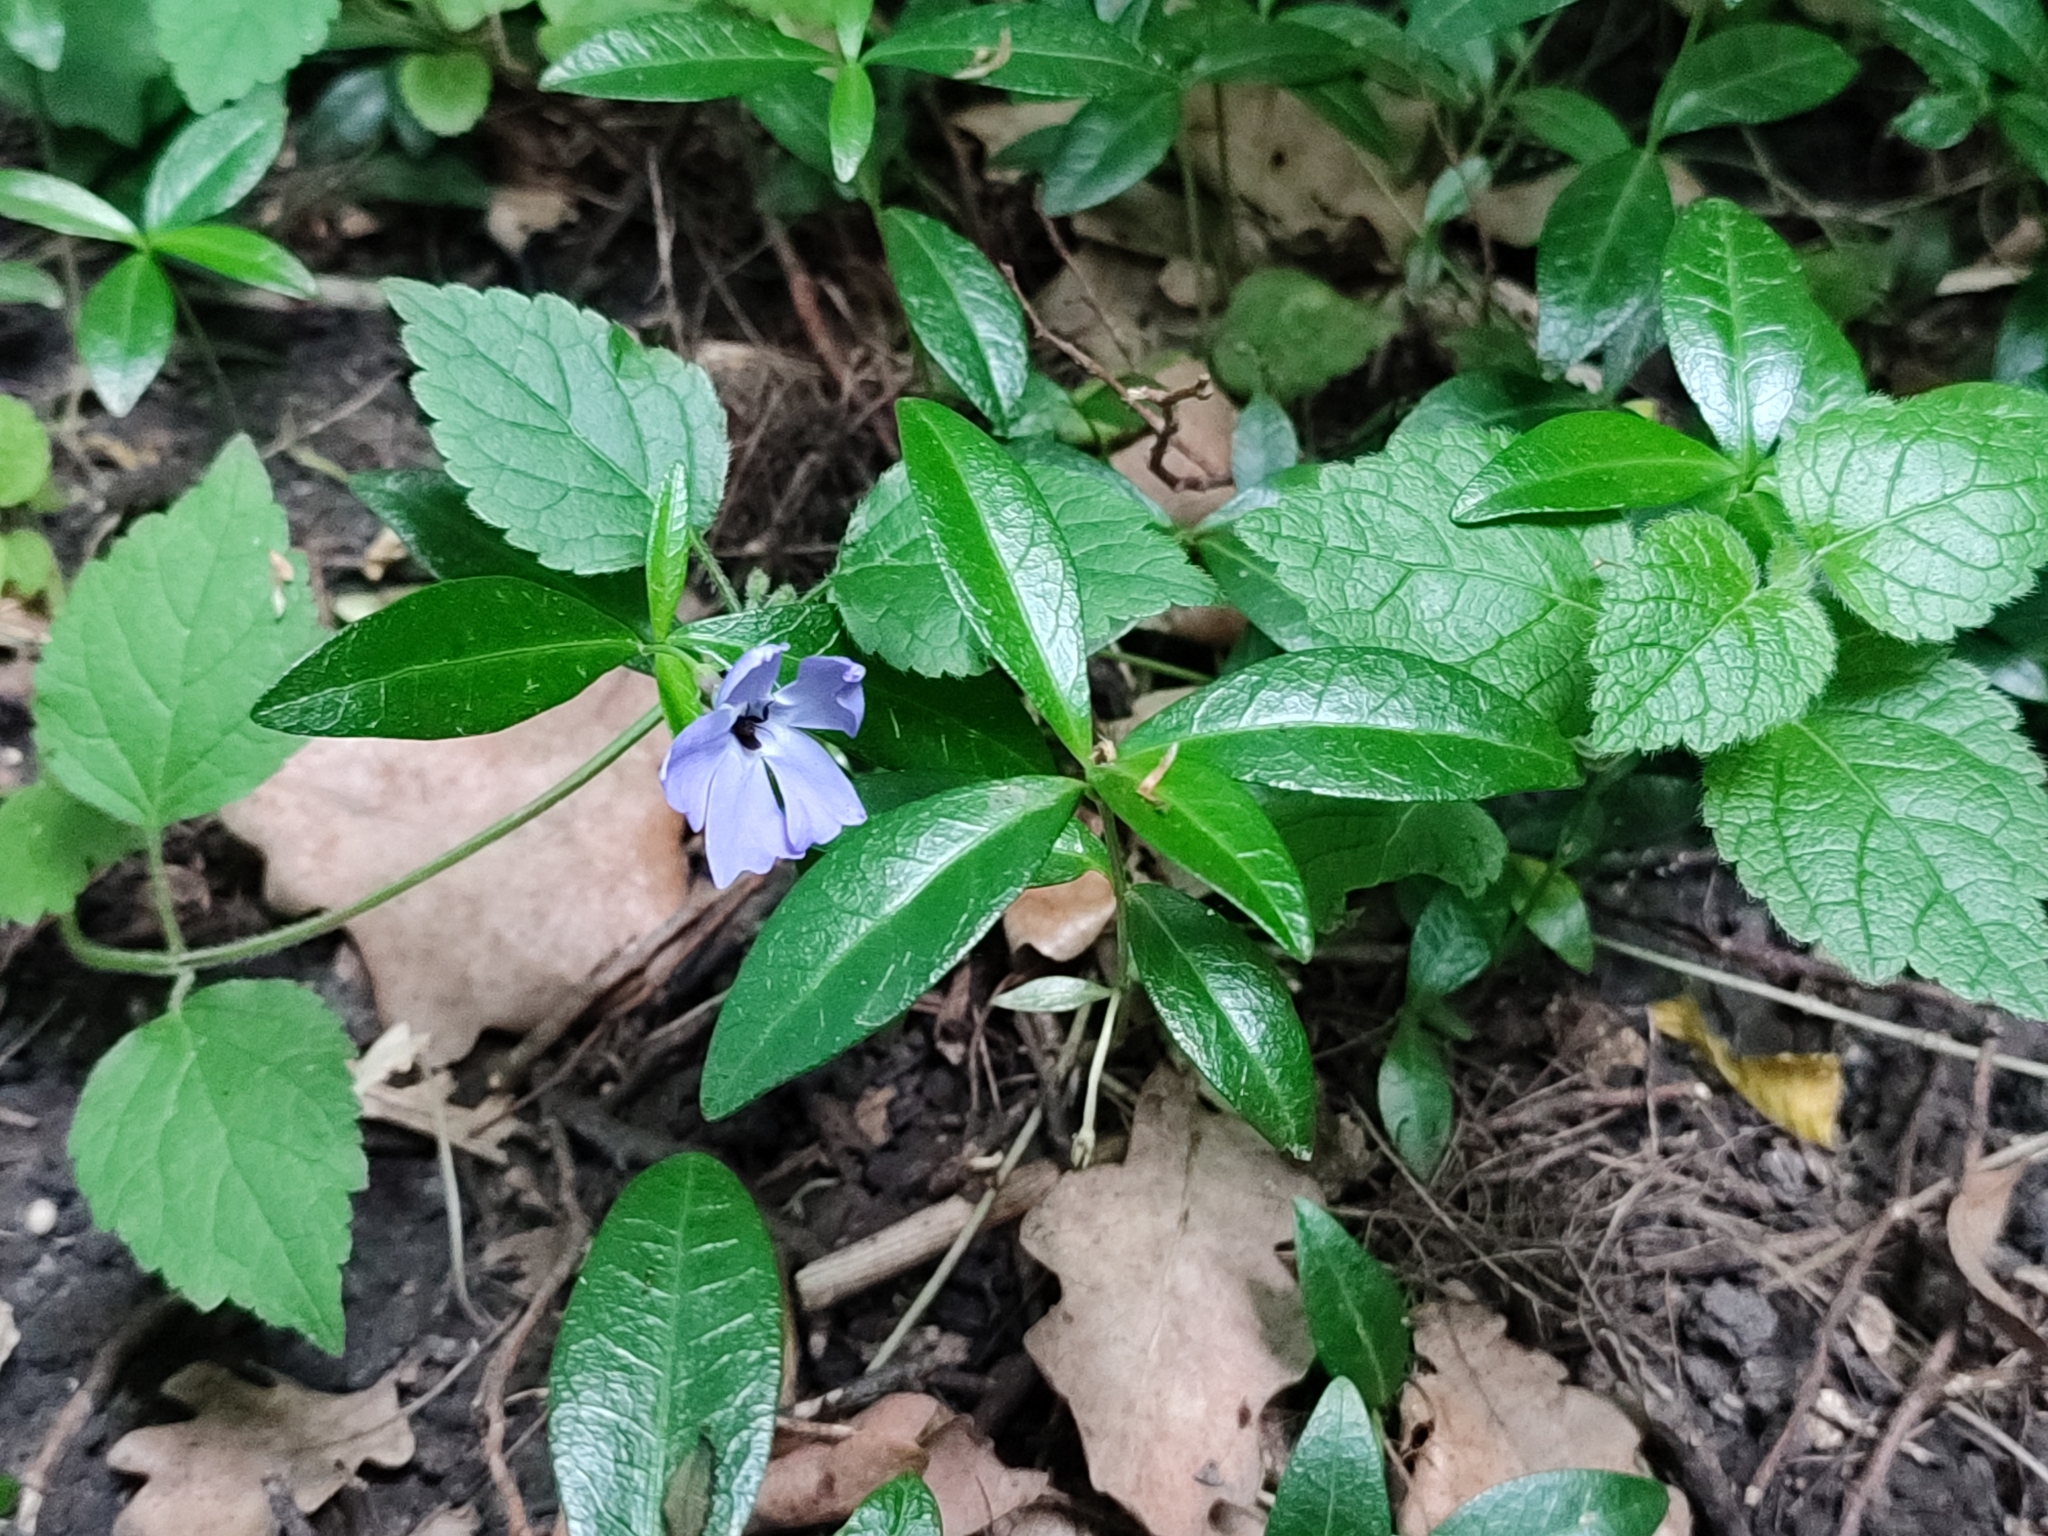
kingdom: Plantae
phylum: Tracheophyta
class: Magnoliopsida
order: Gentianales
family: Apocynaceae
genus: Vinca
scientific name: Vinca minor
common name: Lesser periwinkle
